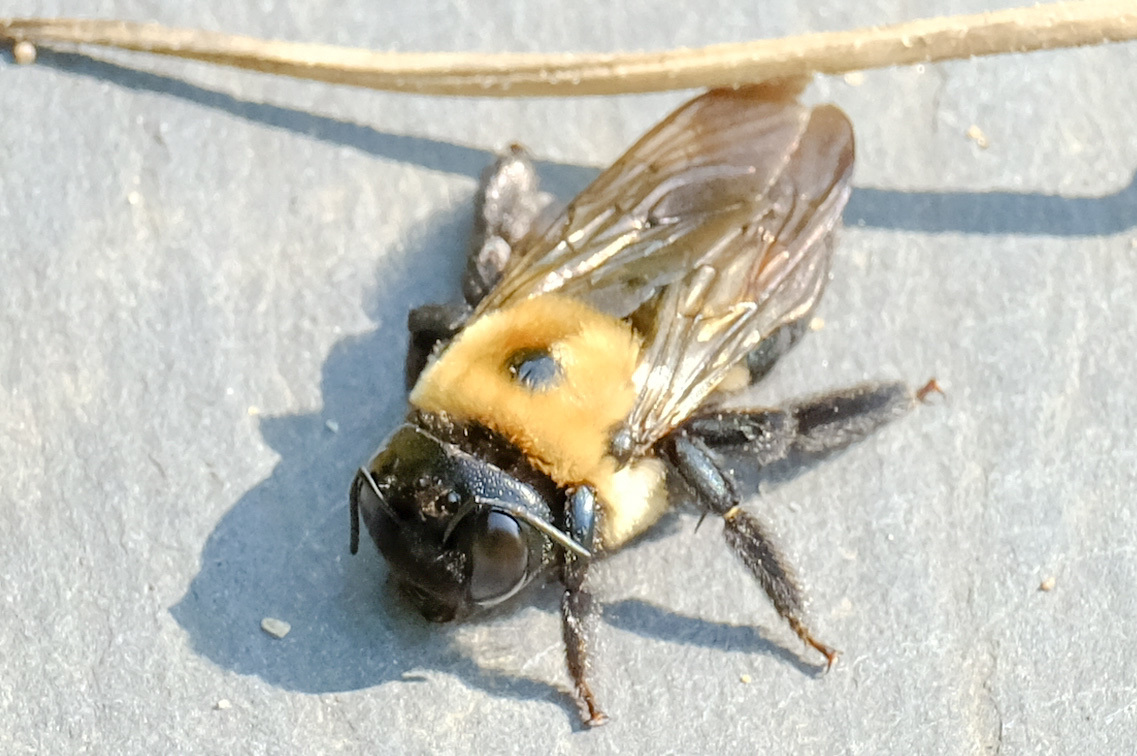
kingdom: Animalia
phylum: Arthropoda
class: Insecta
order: Hymenoptera
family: Apidae
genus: Xylocopa
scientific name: Xylocopa virginica
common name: Carpenter bee
